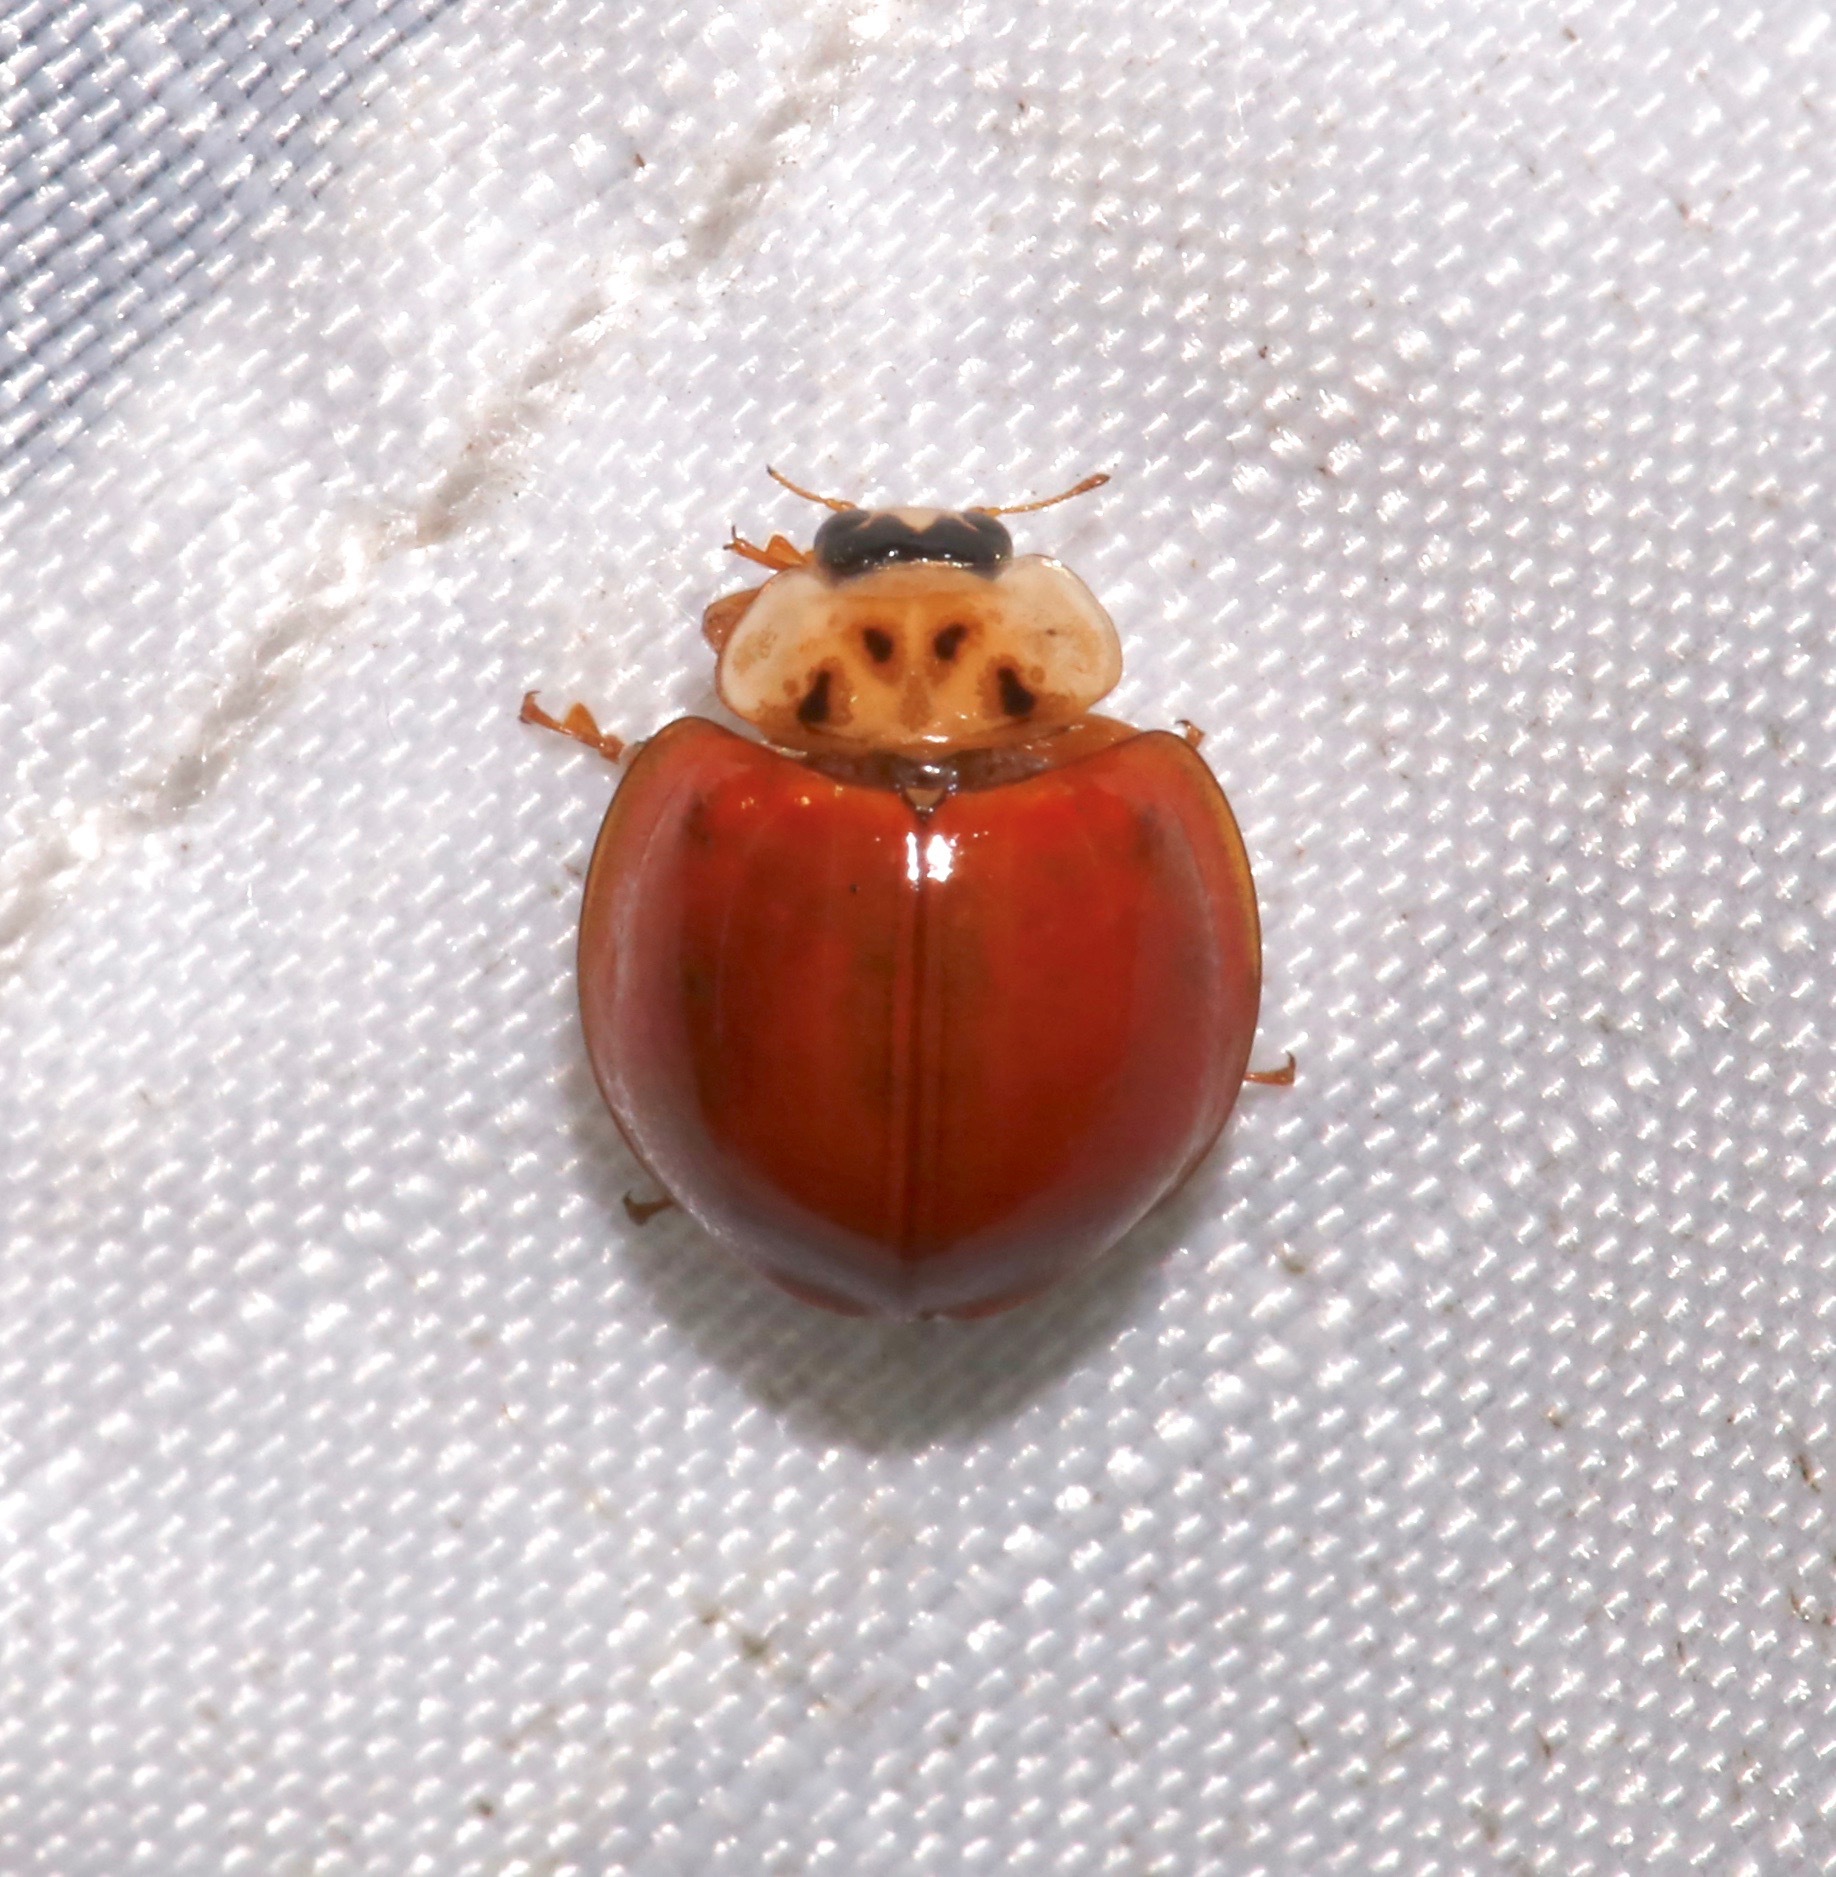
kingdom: Animalia
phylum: Arthropoda
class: Insecta
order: Coleoptera
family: Coccinellidae
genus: Harmonia
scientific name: Harmonia axyridis
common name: Harlequin ladybird
